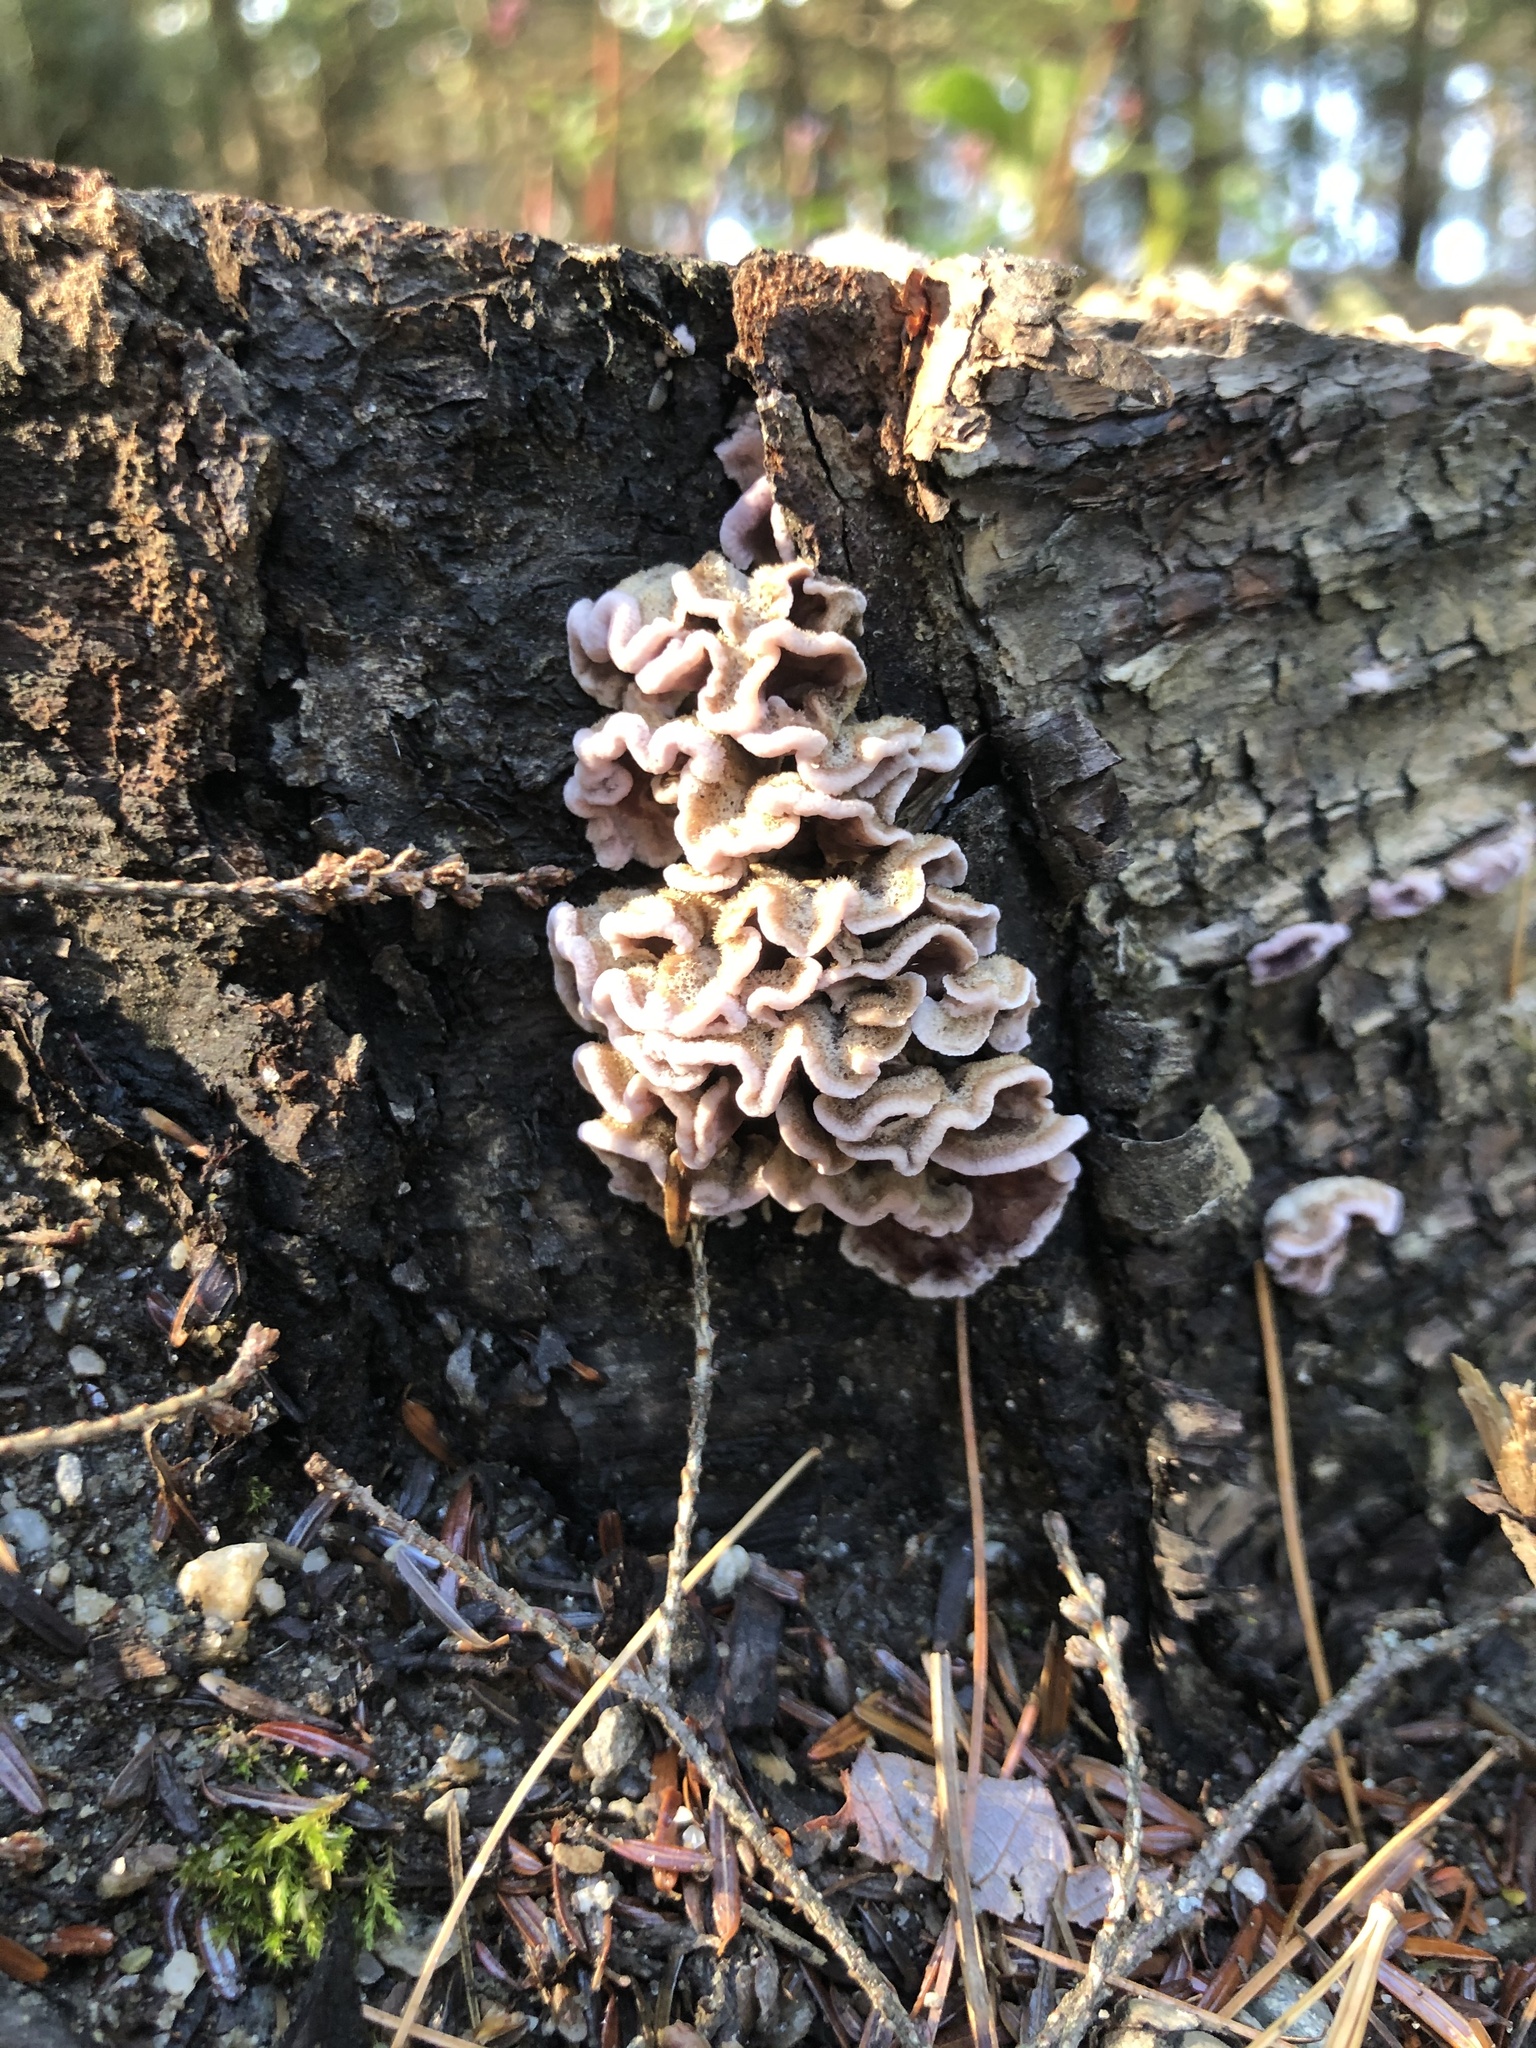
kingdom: Fungi
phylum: Basidiomycota
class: Agaricomycetes
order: Agaricales
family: Cyphellaceae
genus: Chondrostereum
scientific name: Chondrostereum purpureum
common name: Silver leaf disease
